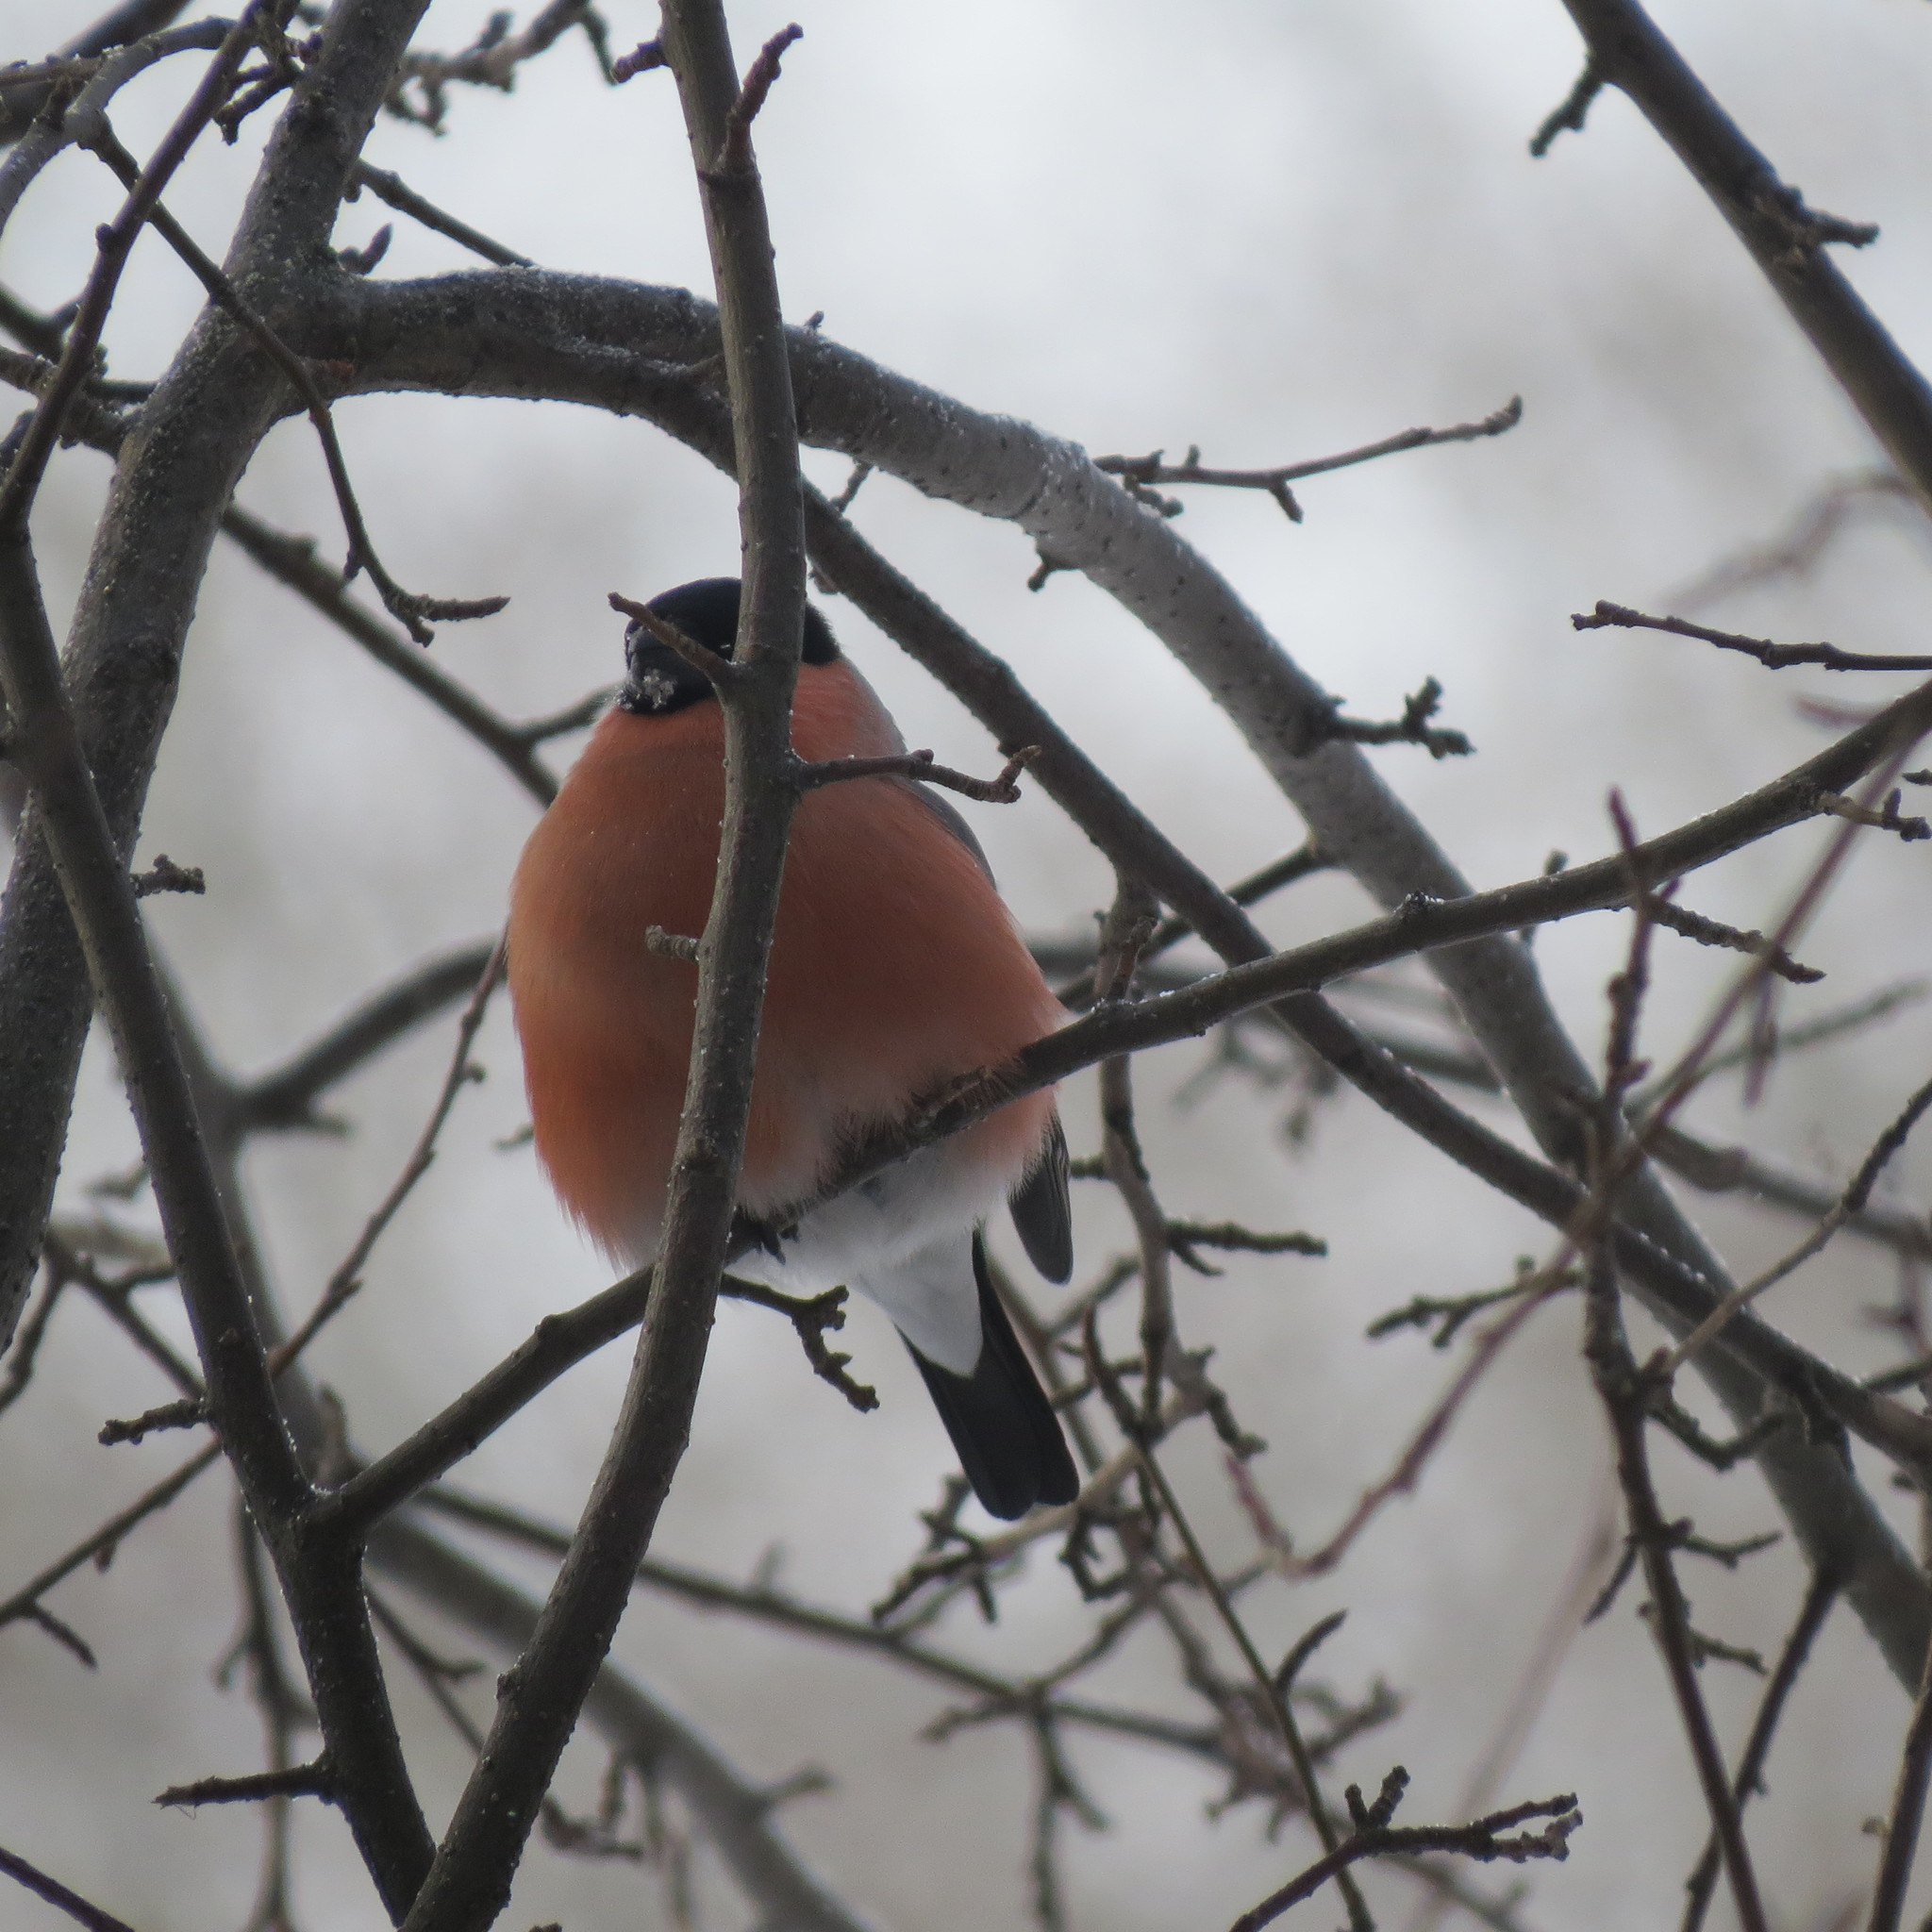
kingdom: Animalia
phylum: Chordata
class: Aves
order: Passeriformes
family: Fringillidae
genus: Pyrrhula
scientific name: Pyrrhula pyrrhula
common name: Eurasian bullfinch
